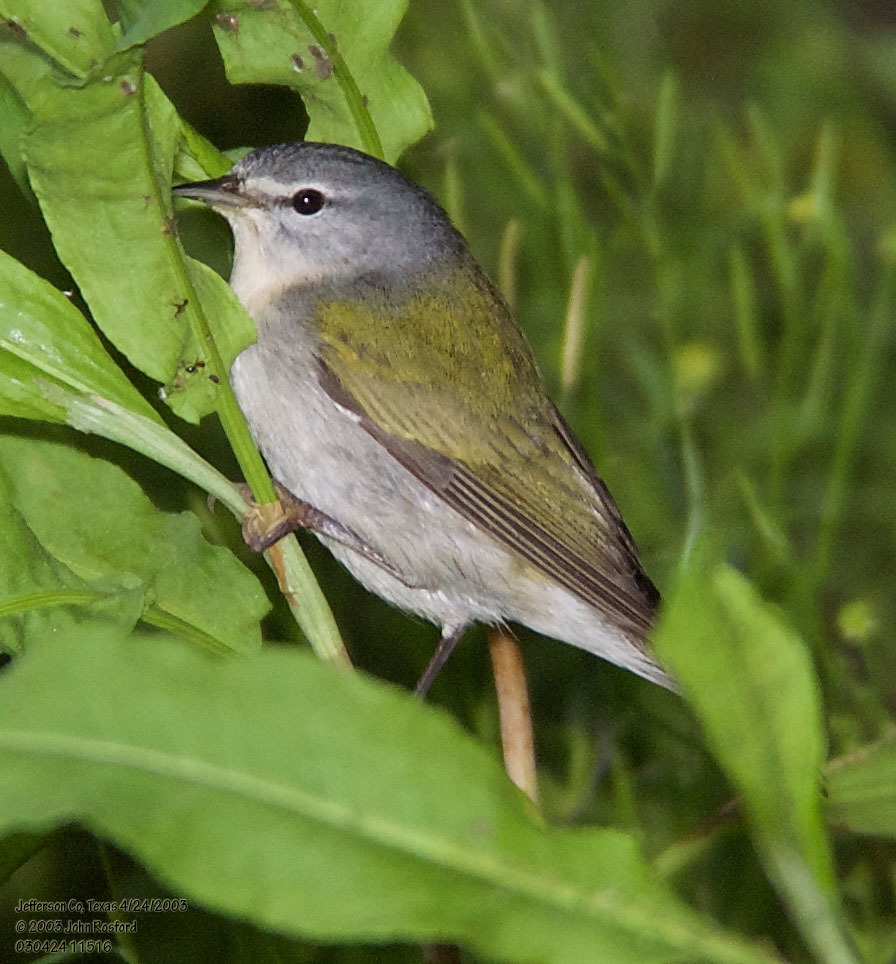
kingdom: Animalia
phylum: Chordata
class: Aves
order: Passeriformes
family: Parulidae
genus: Leiothlypis
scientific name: Leiothlypis peregrina
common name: Tennessee warbler
